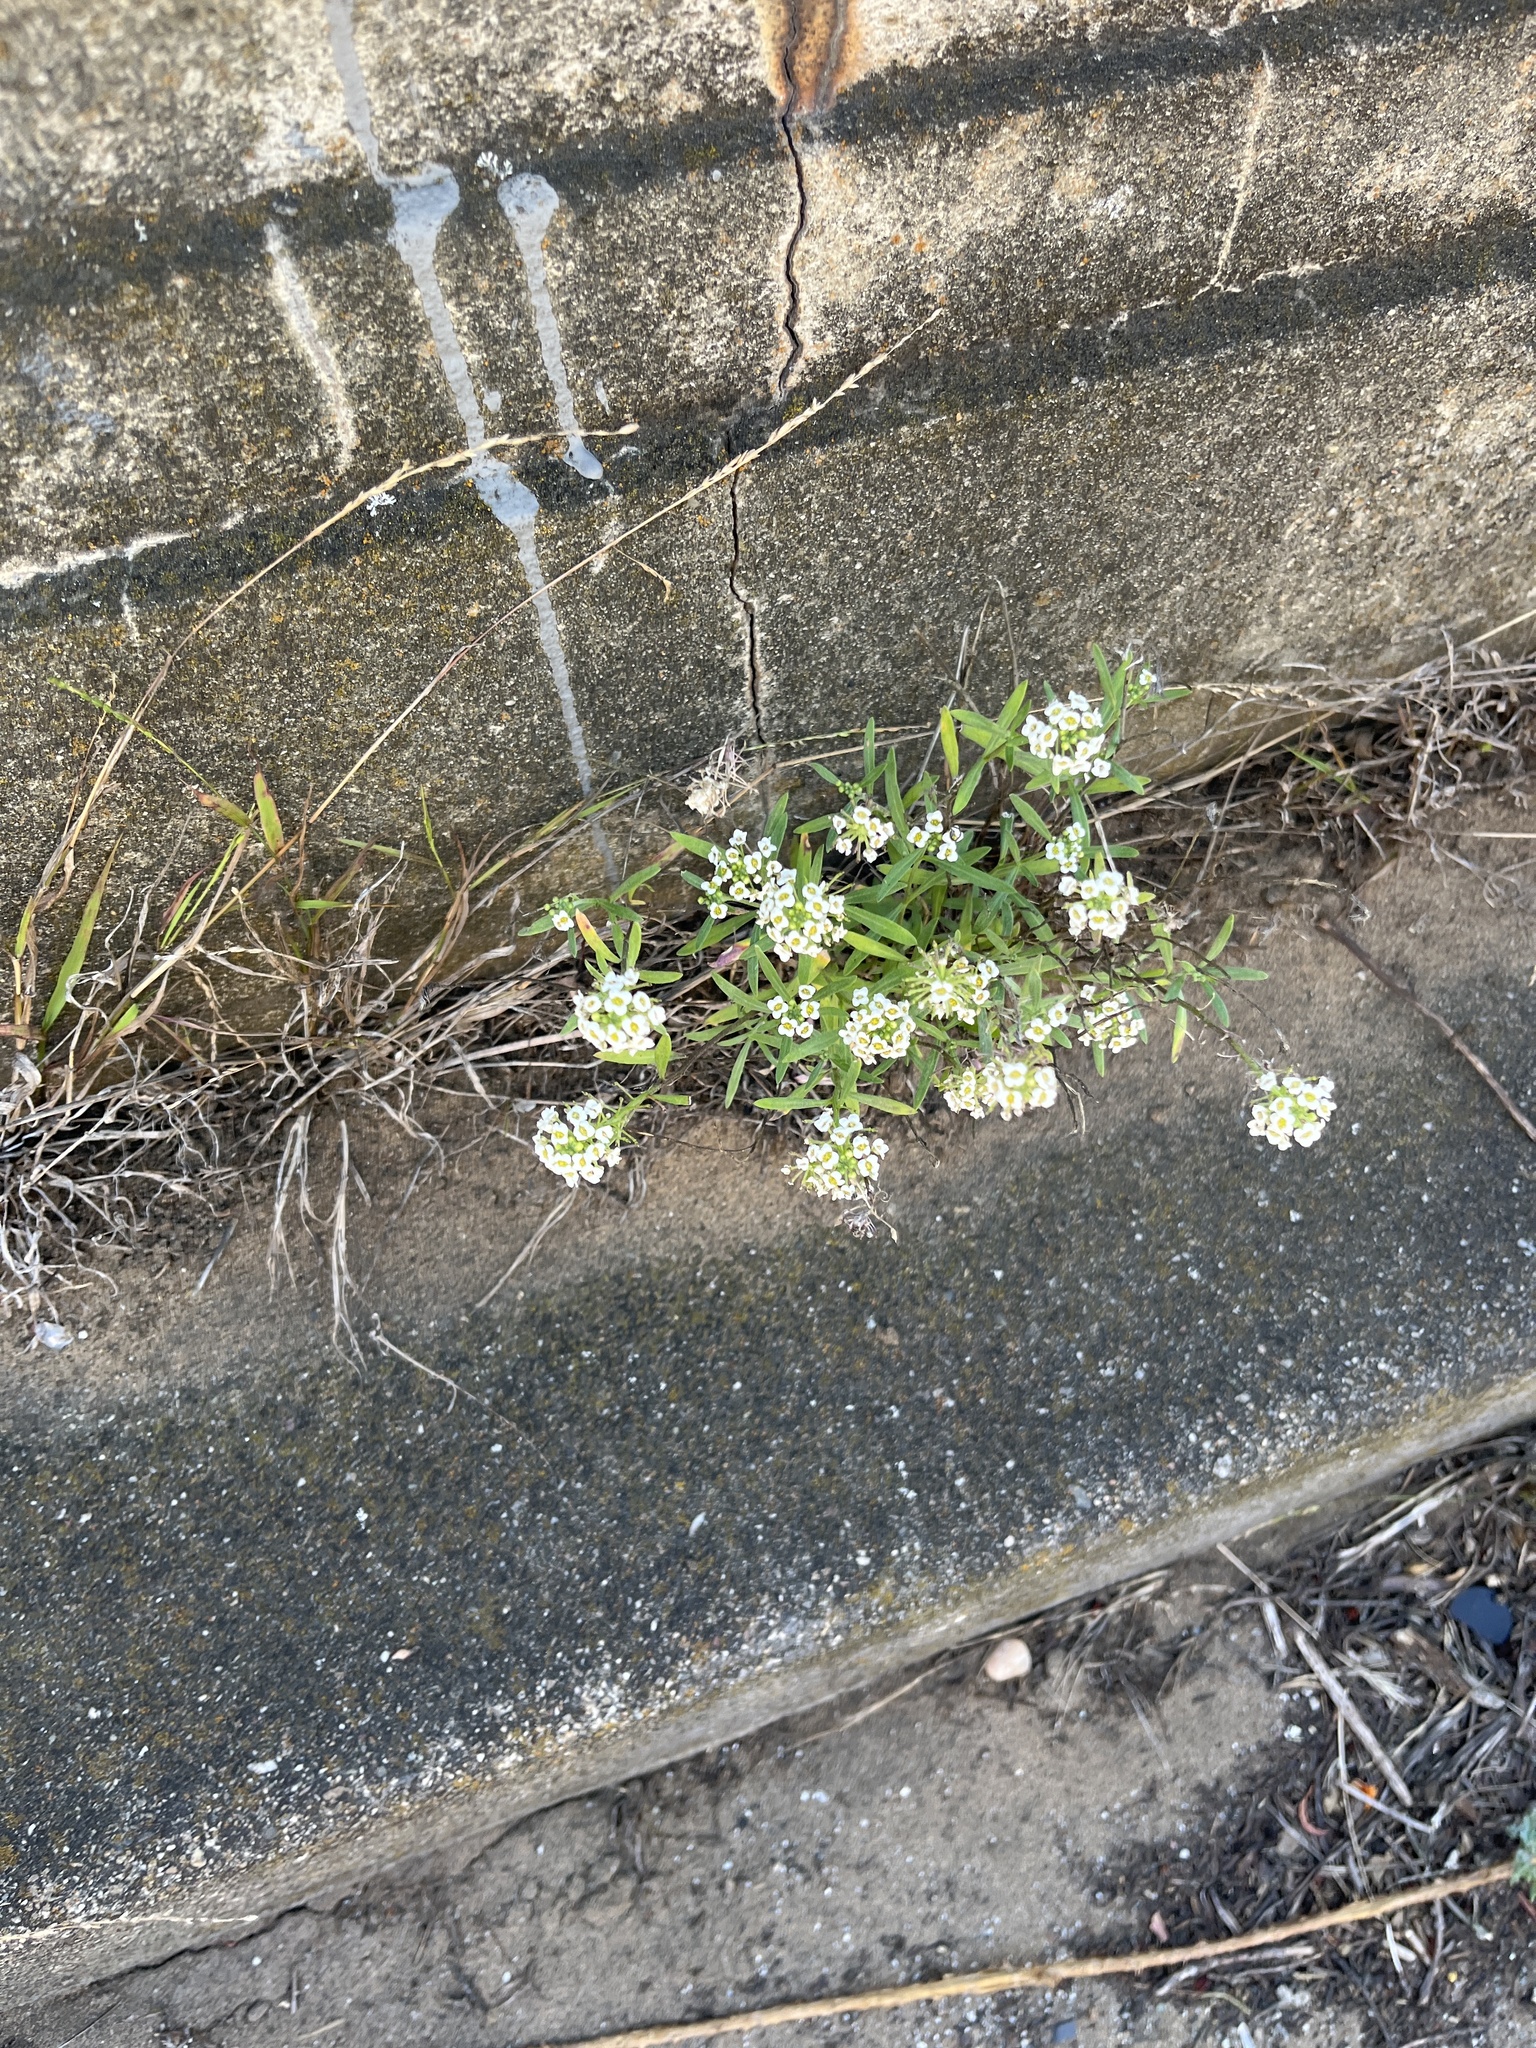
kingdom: Plantae
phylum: Tracheophyta
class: Magnoliopsida
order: Brassicales
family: Brassicaceae
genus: Lobularia
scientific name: Lobularia maritima
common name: Sweet alison
